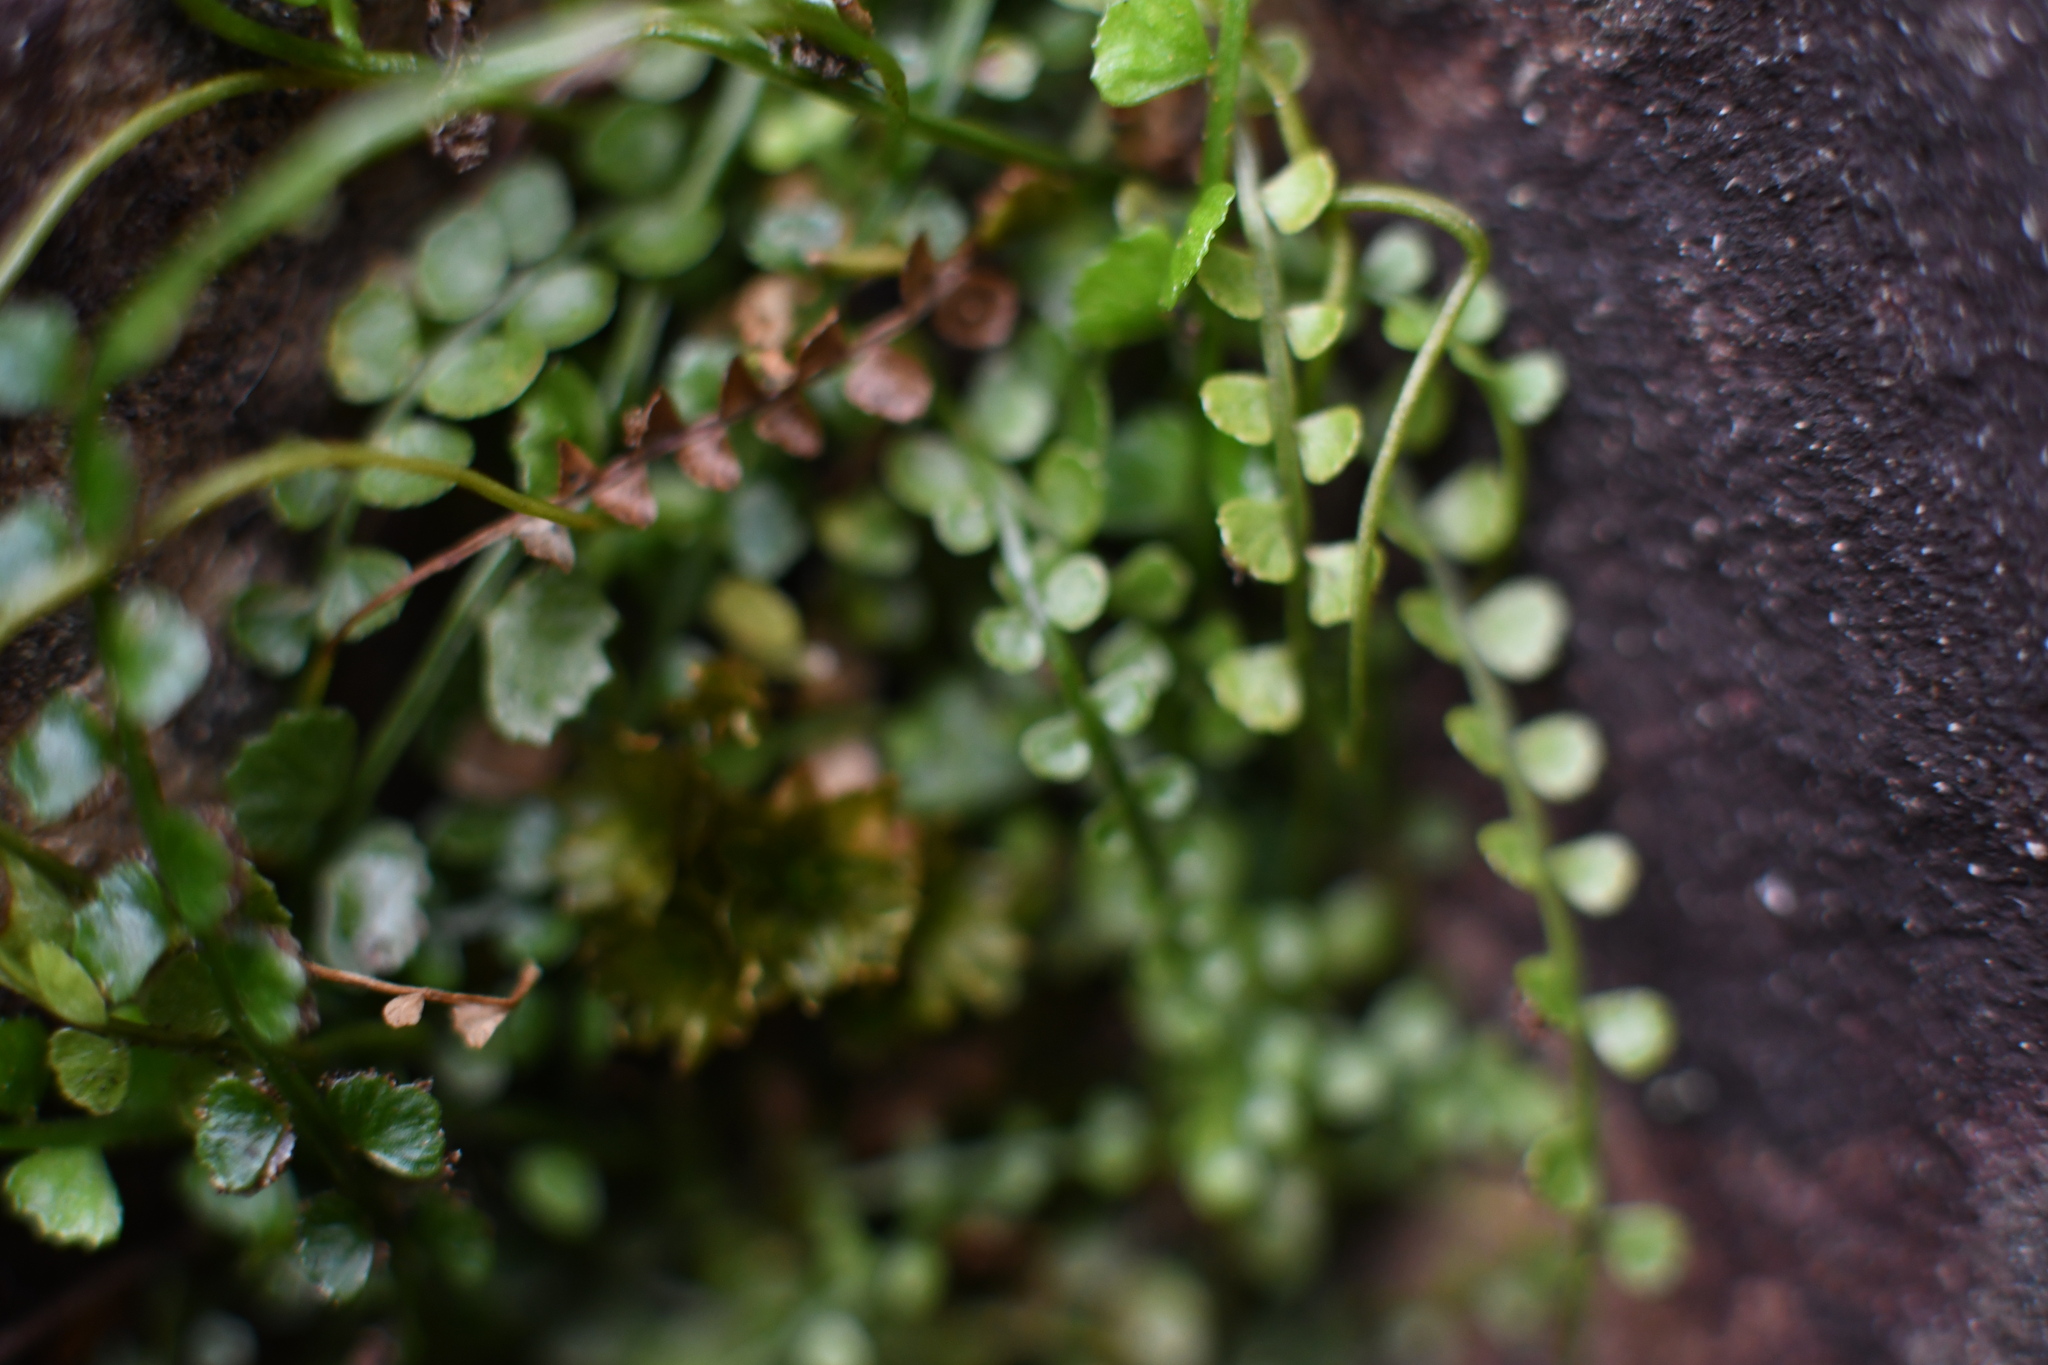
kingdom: Plantae
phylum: Tracheophyta
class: Polypodiopsida
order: Polypodiales
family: Aspleniaceae
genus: Asplenium
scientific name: Asplenium flabellifolium
